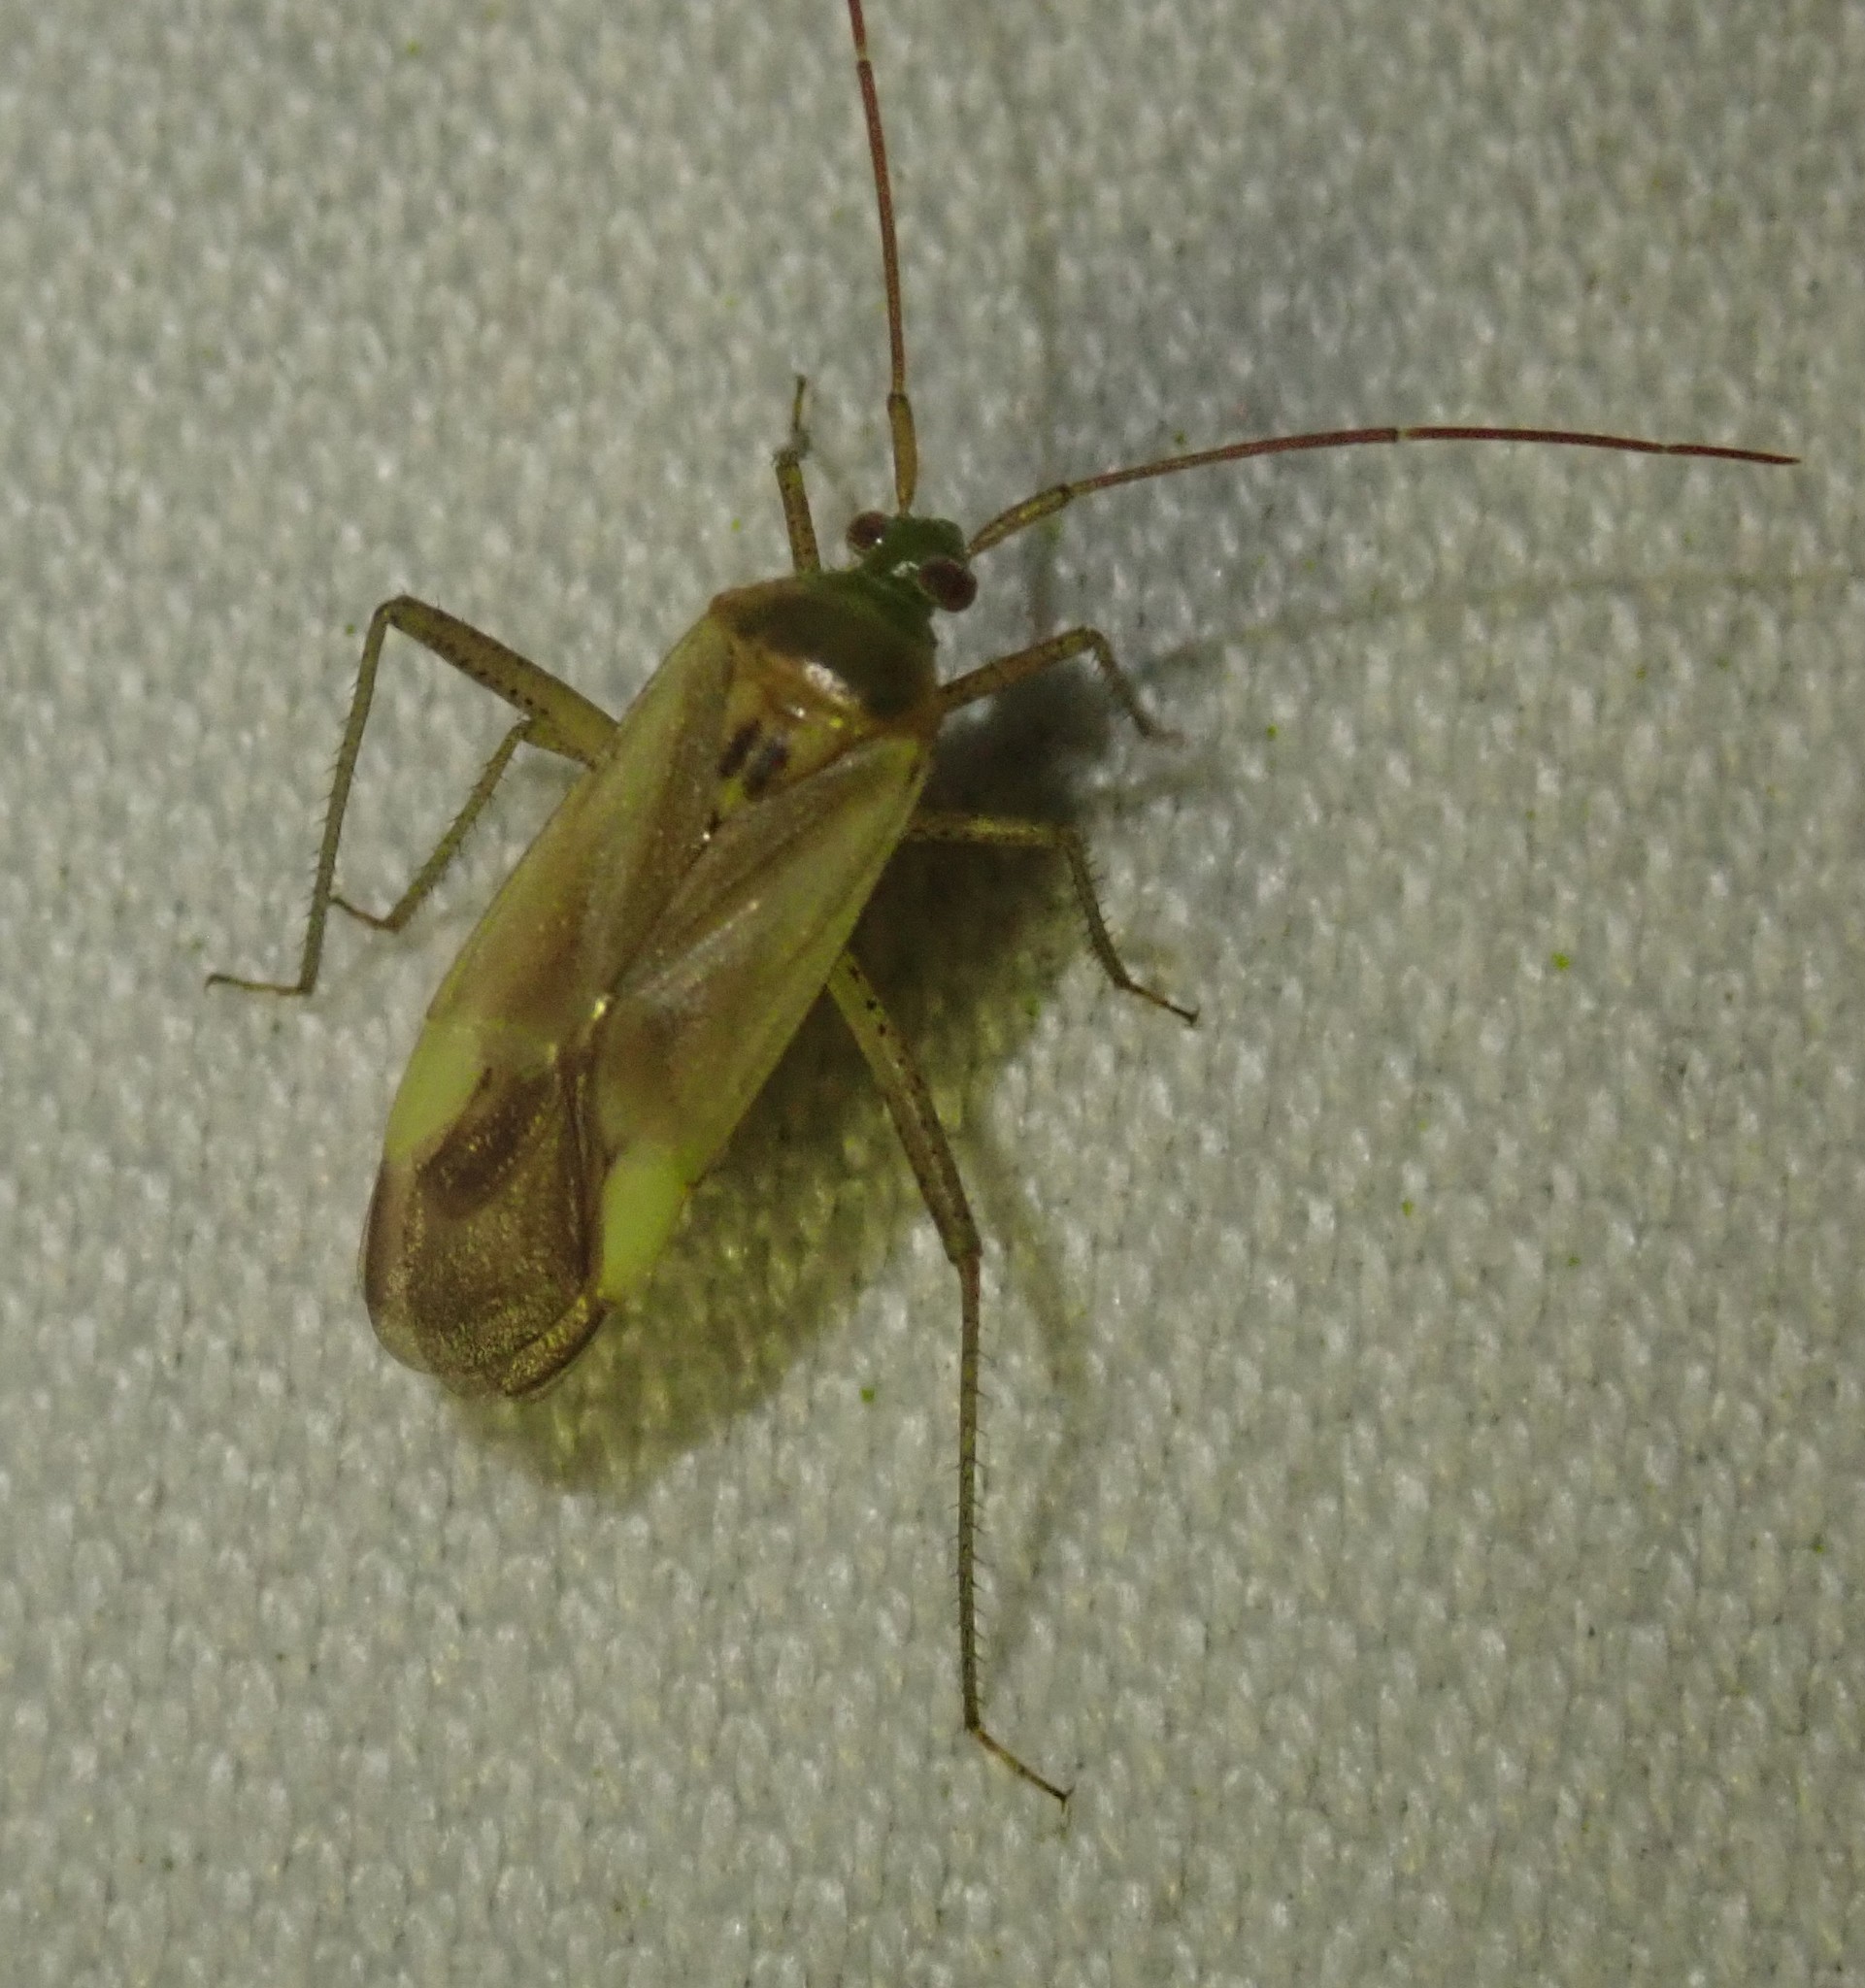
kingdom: Animalia
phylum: Arthropoda
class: Insecta
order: Hemiptera
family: Miridae
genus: Adelphocoris
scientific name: Adelphocoris lineolatus
